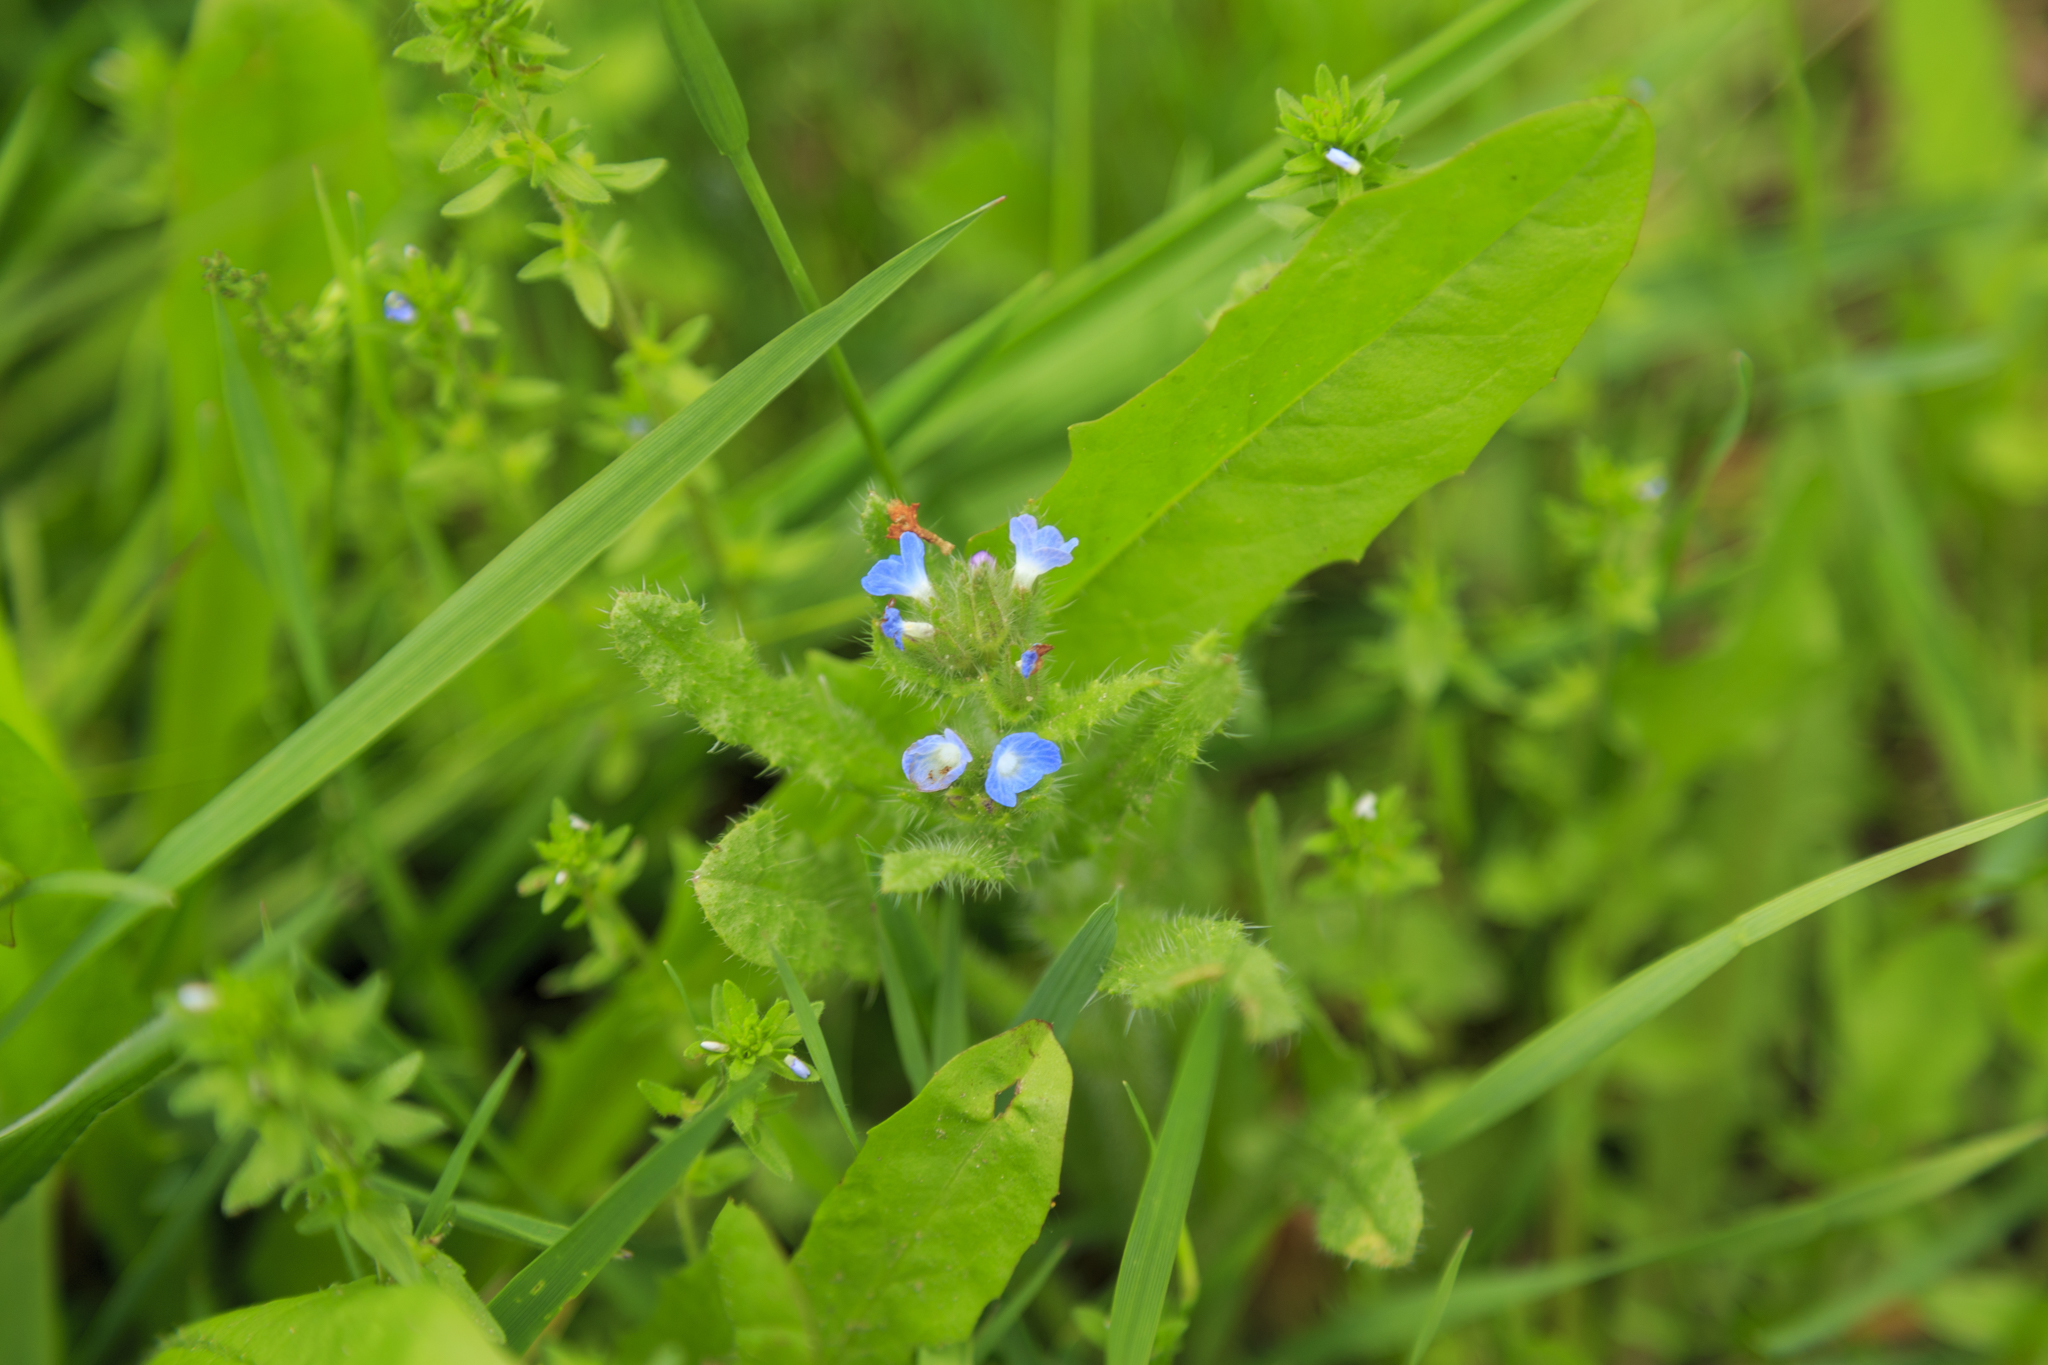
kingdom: Plantae
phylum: Tracheophyta
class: Magnoliopsida
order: Boraginales
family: Boraginaceae
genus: Lycopsis
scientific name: Lycopsis arvensis
